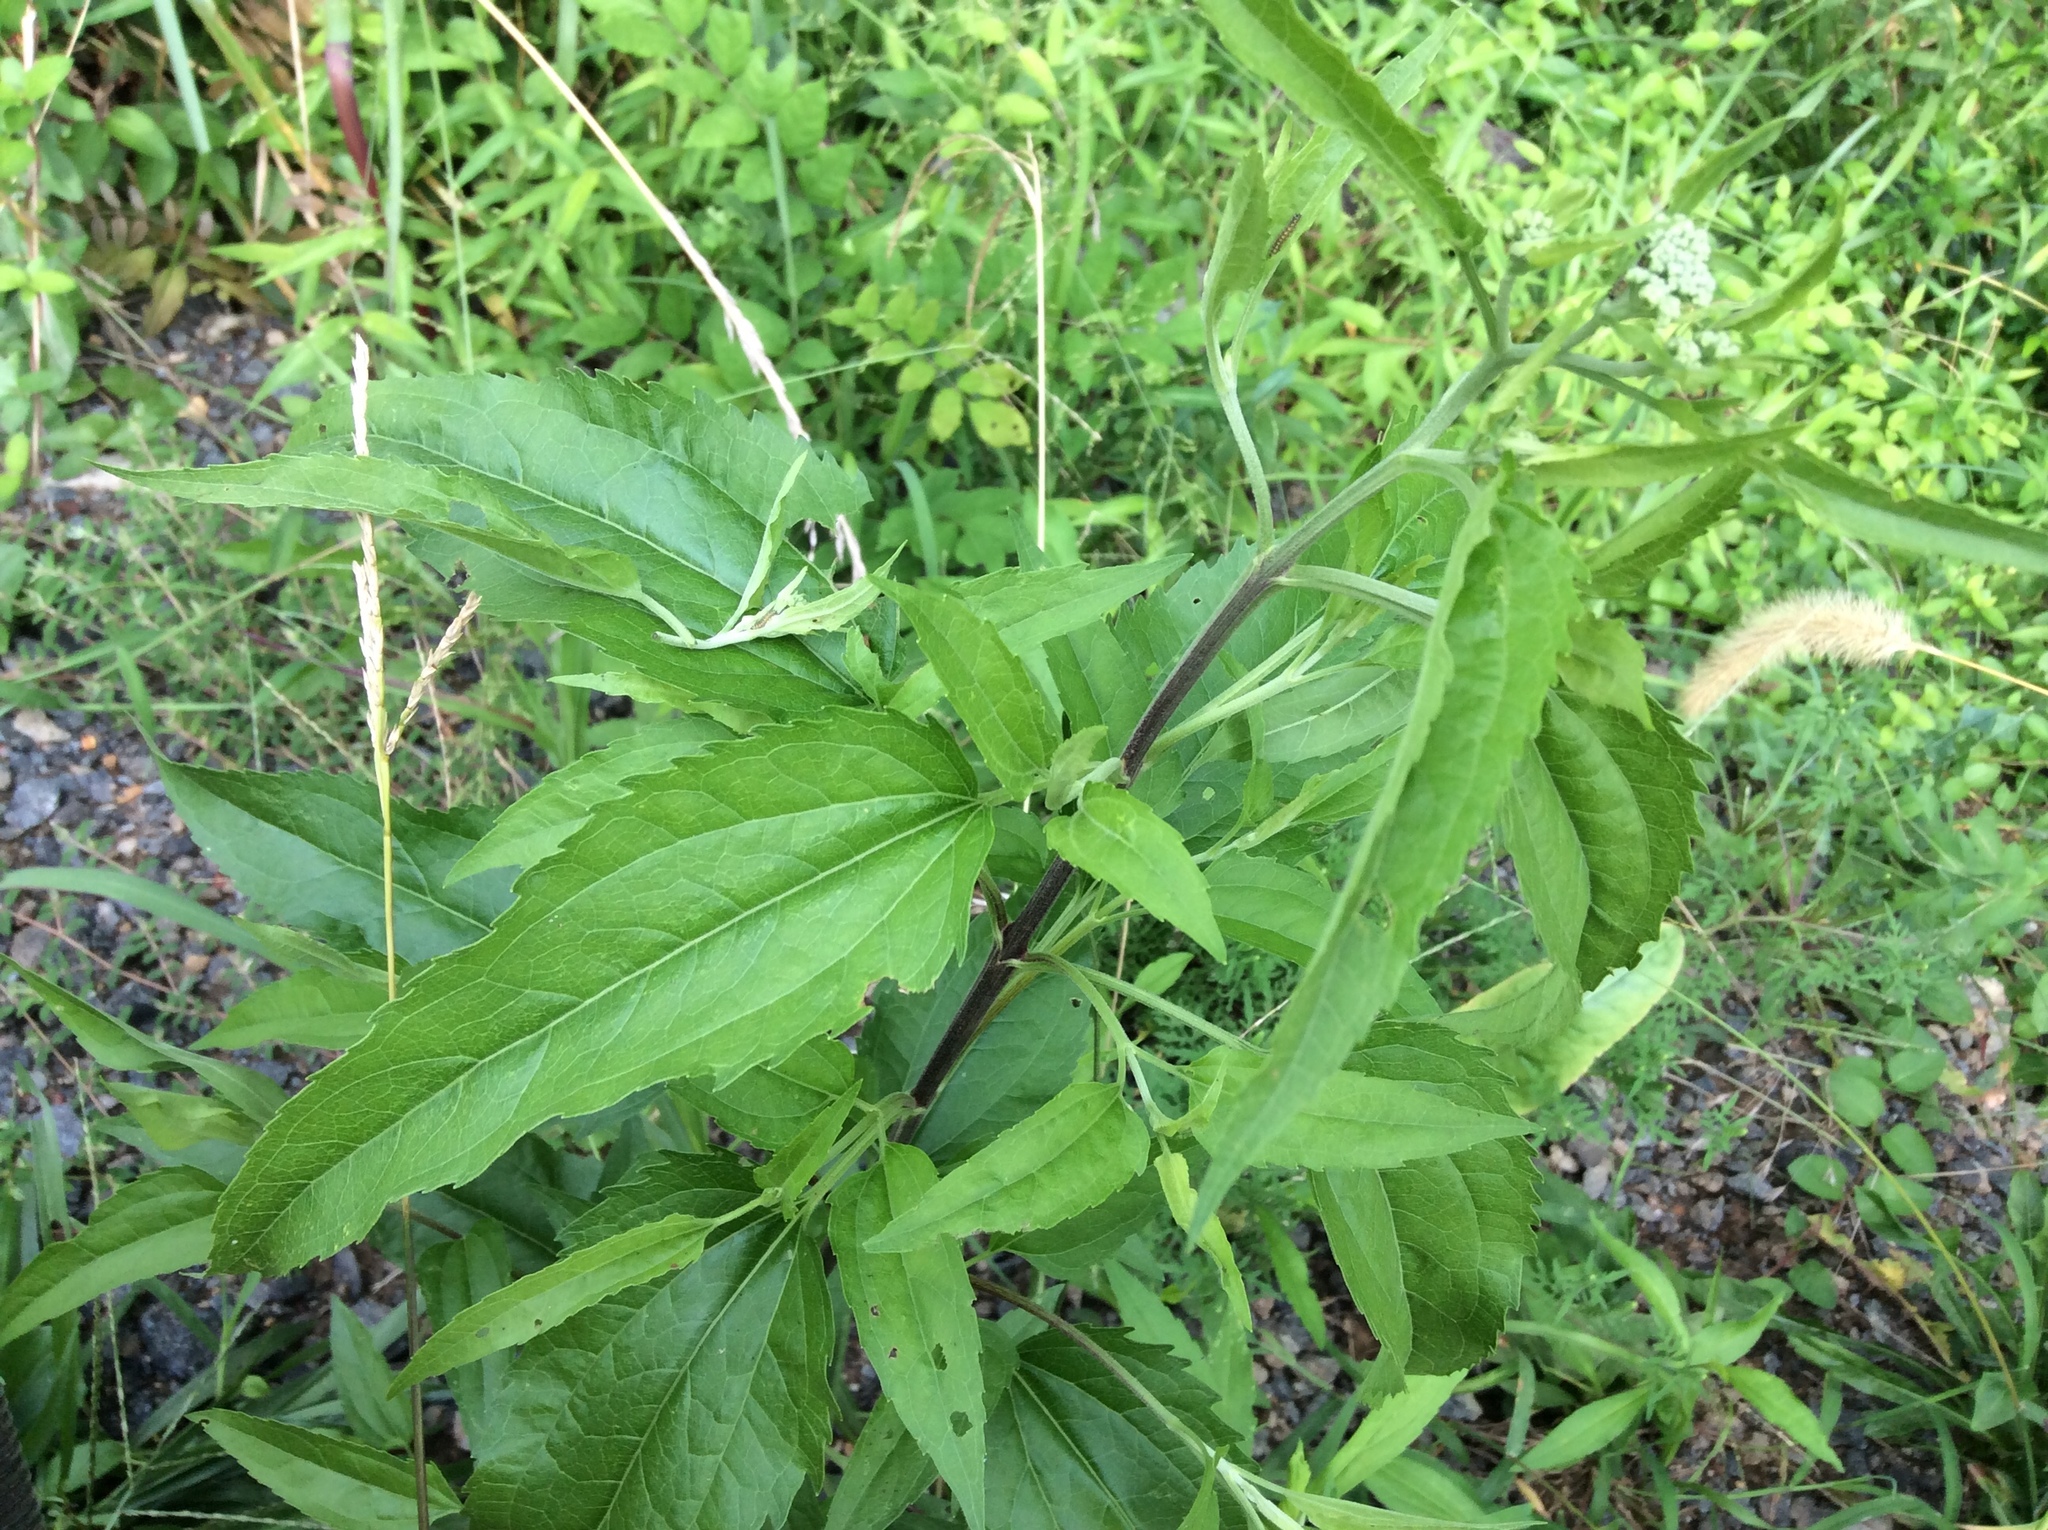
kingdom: Plantae
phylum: Tracheophyta
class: Magnoliopsida
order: Asterales
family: Asteraceae
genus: Eupatorium
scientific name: Eupatorium serotinum
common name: Late boneset
